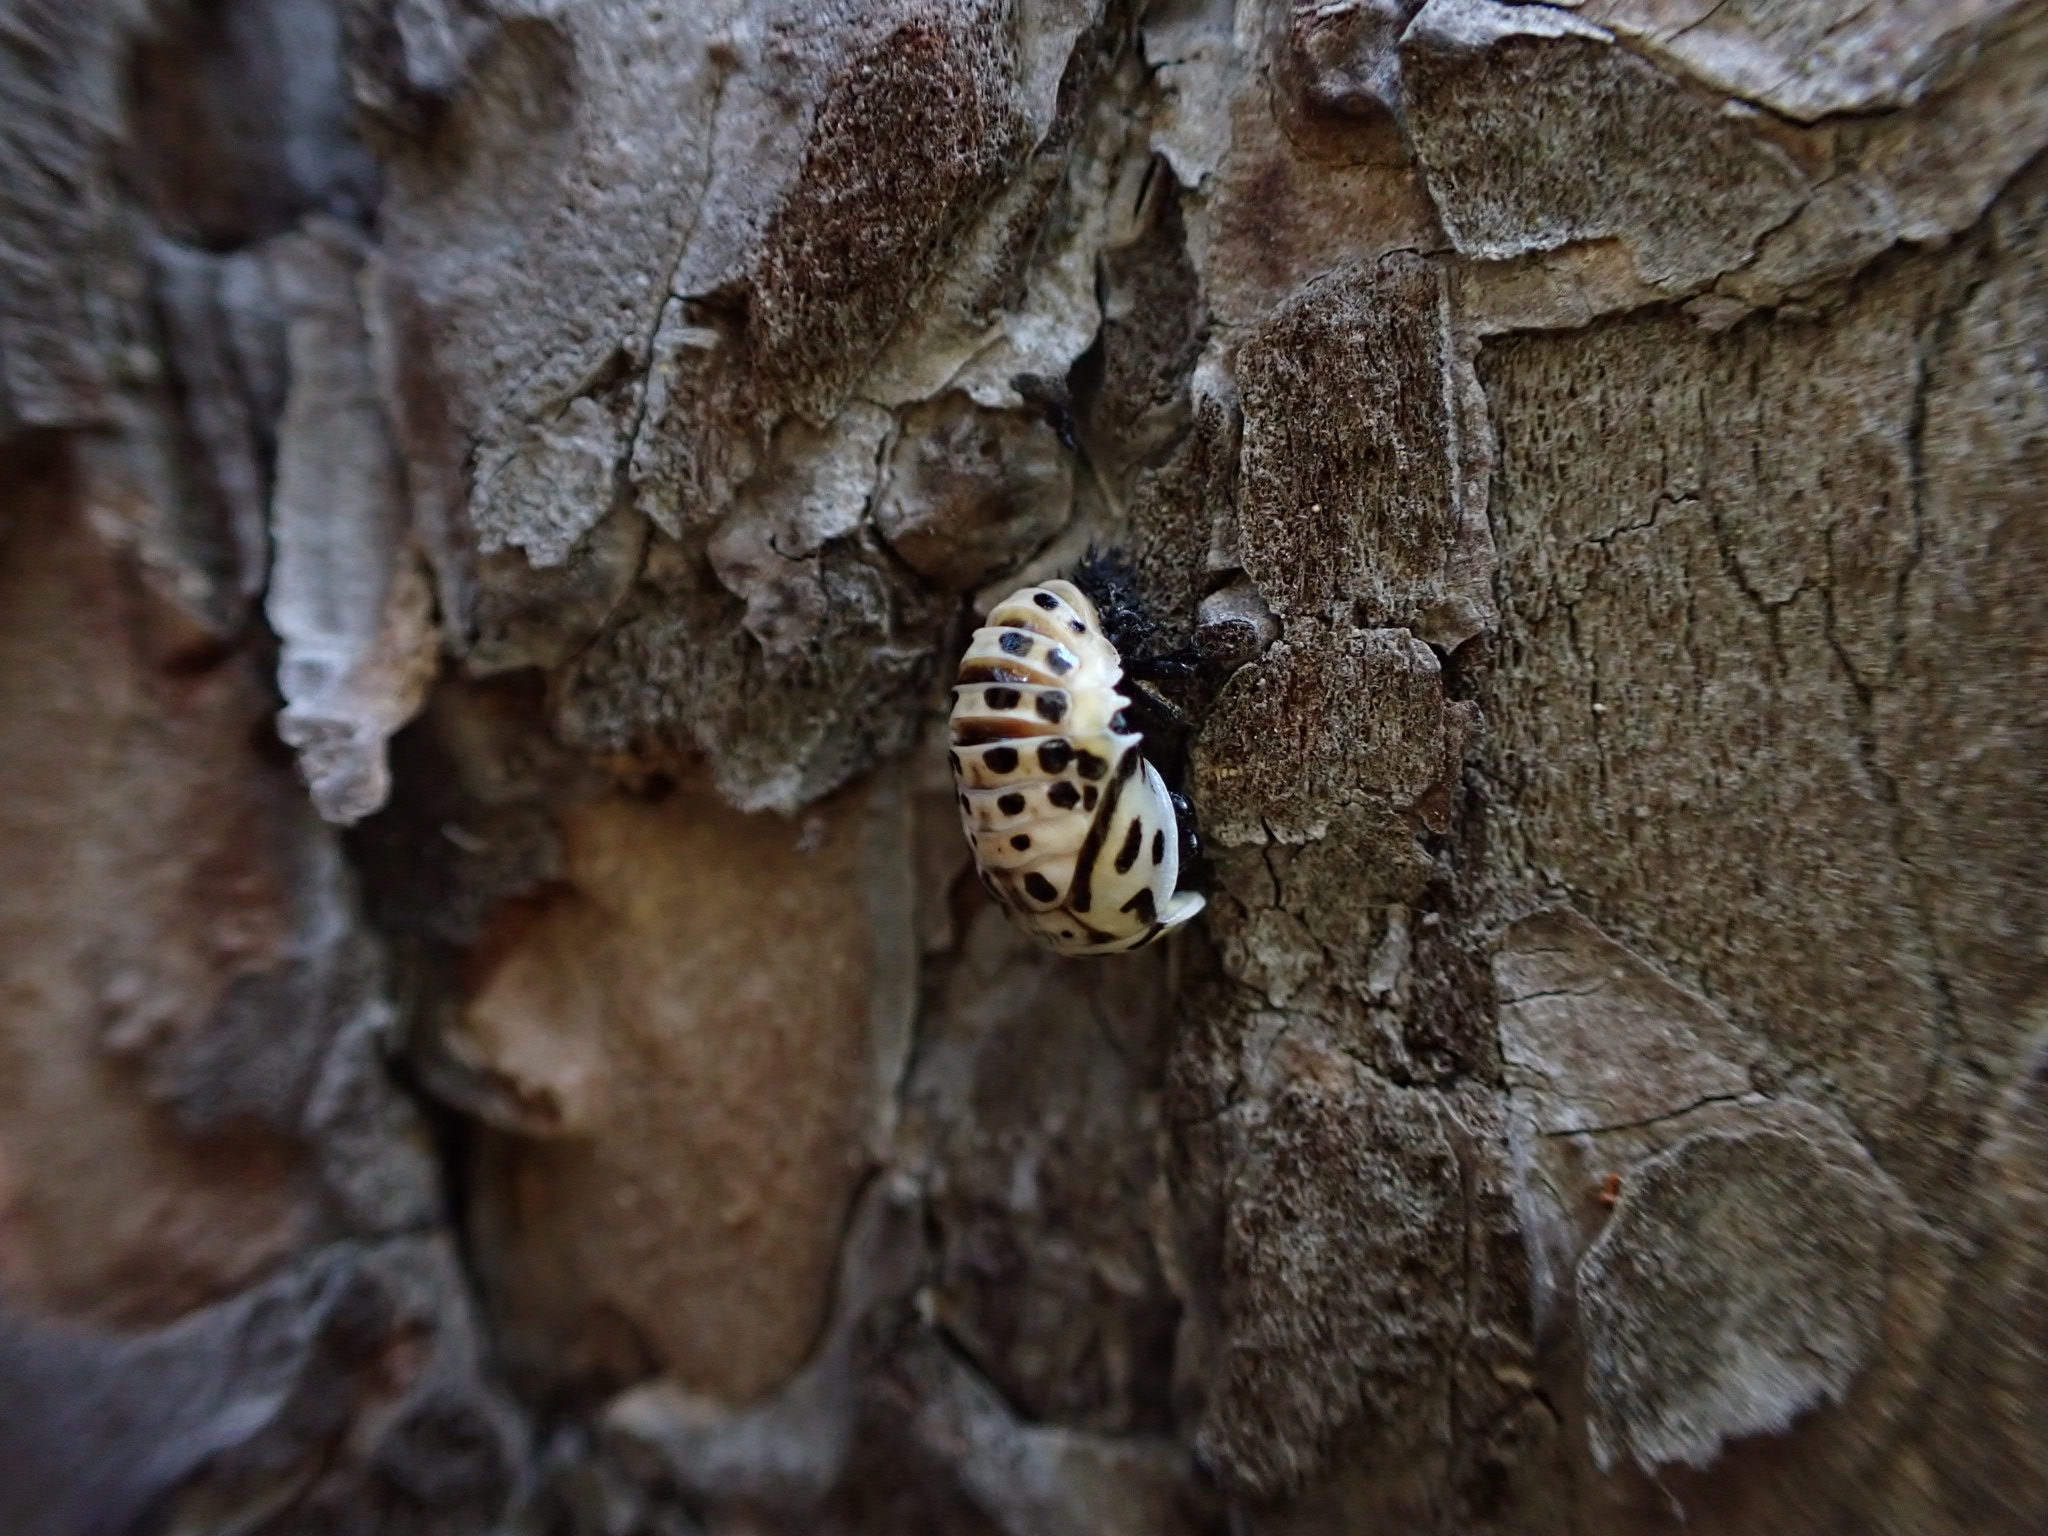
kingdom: Animalia
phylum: Arthropoda
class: Insecta
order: Coleoptera
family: Coccinellidae
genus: Anatis
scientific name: Anatis ocellata
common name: Eyed ladybird
